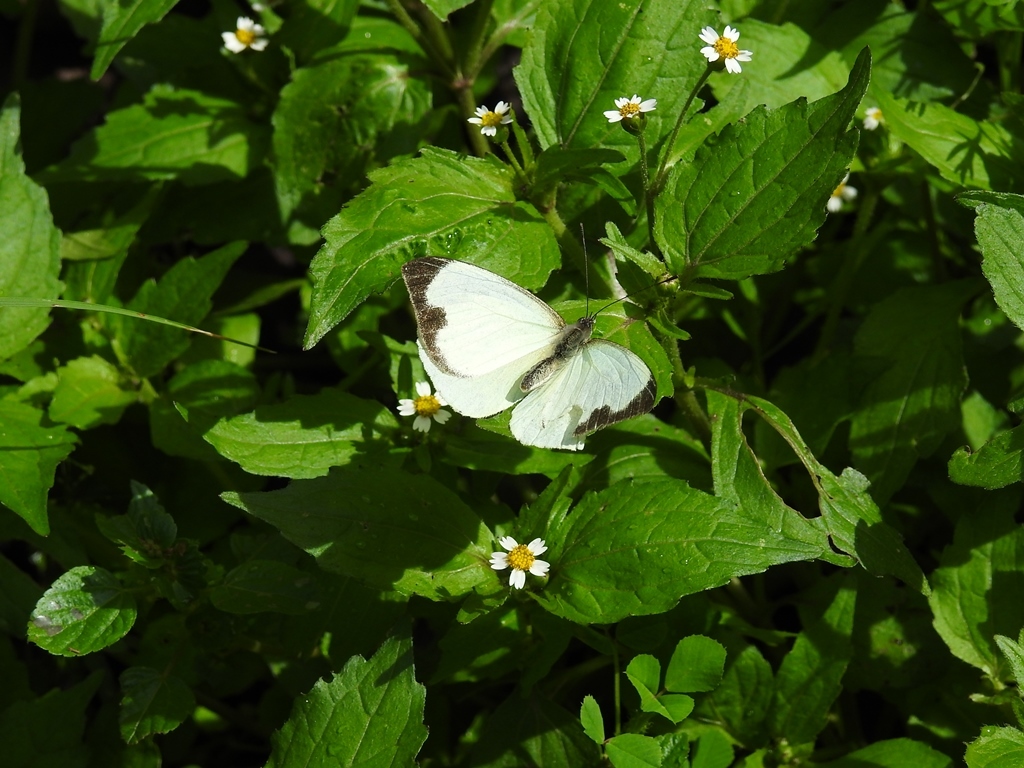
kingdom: Animalia
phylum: Arthropoda
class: Insecta
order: Lepidoptera
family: Pieridae
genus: Leptophobia
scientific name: Leptophobia aripa
